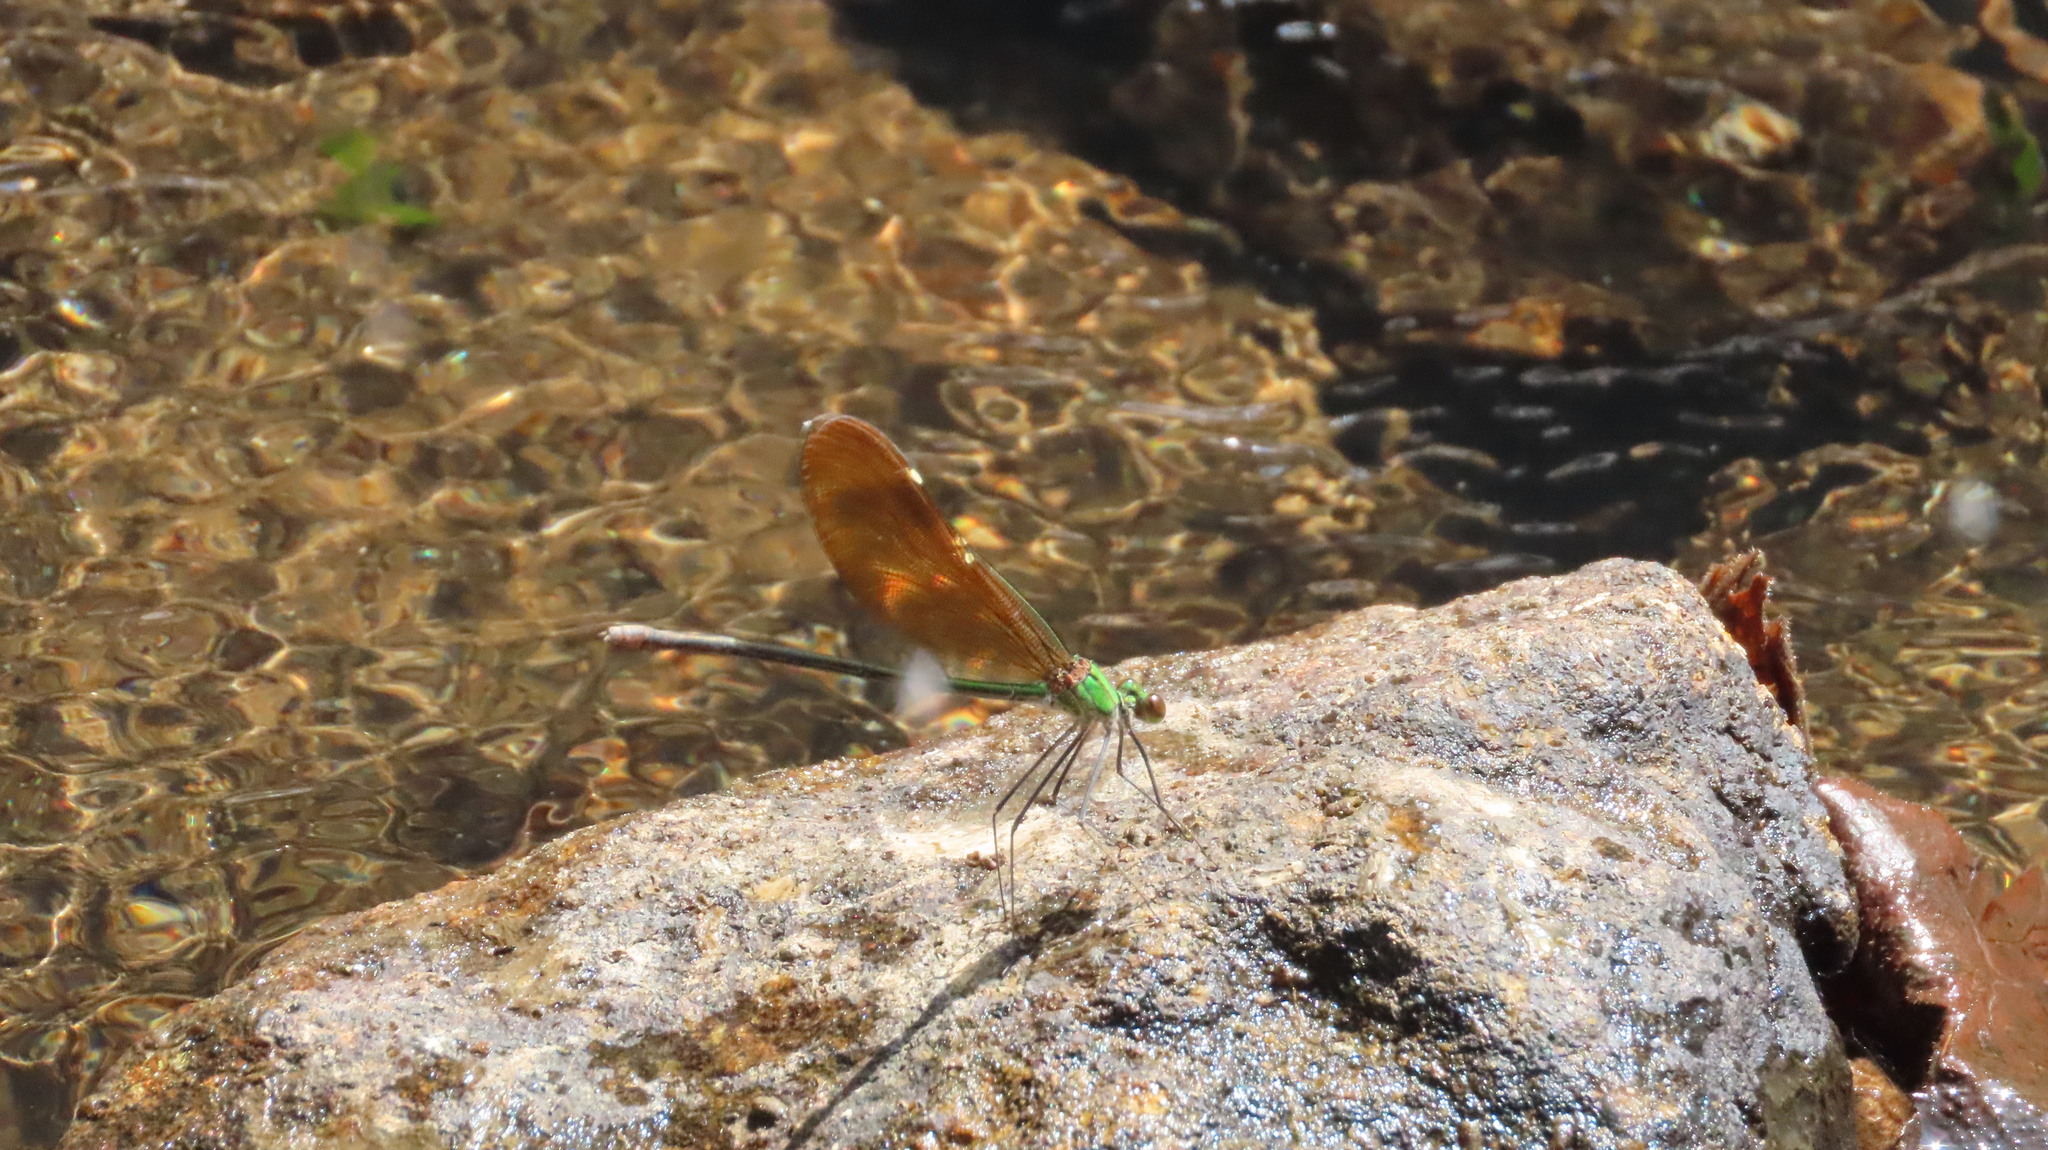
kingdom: Animalia
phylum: Arthropoda
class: Insecta
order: Odonata
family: Calopterygidae
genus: Neurobasis
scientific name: Neurobasis chinensis
